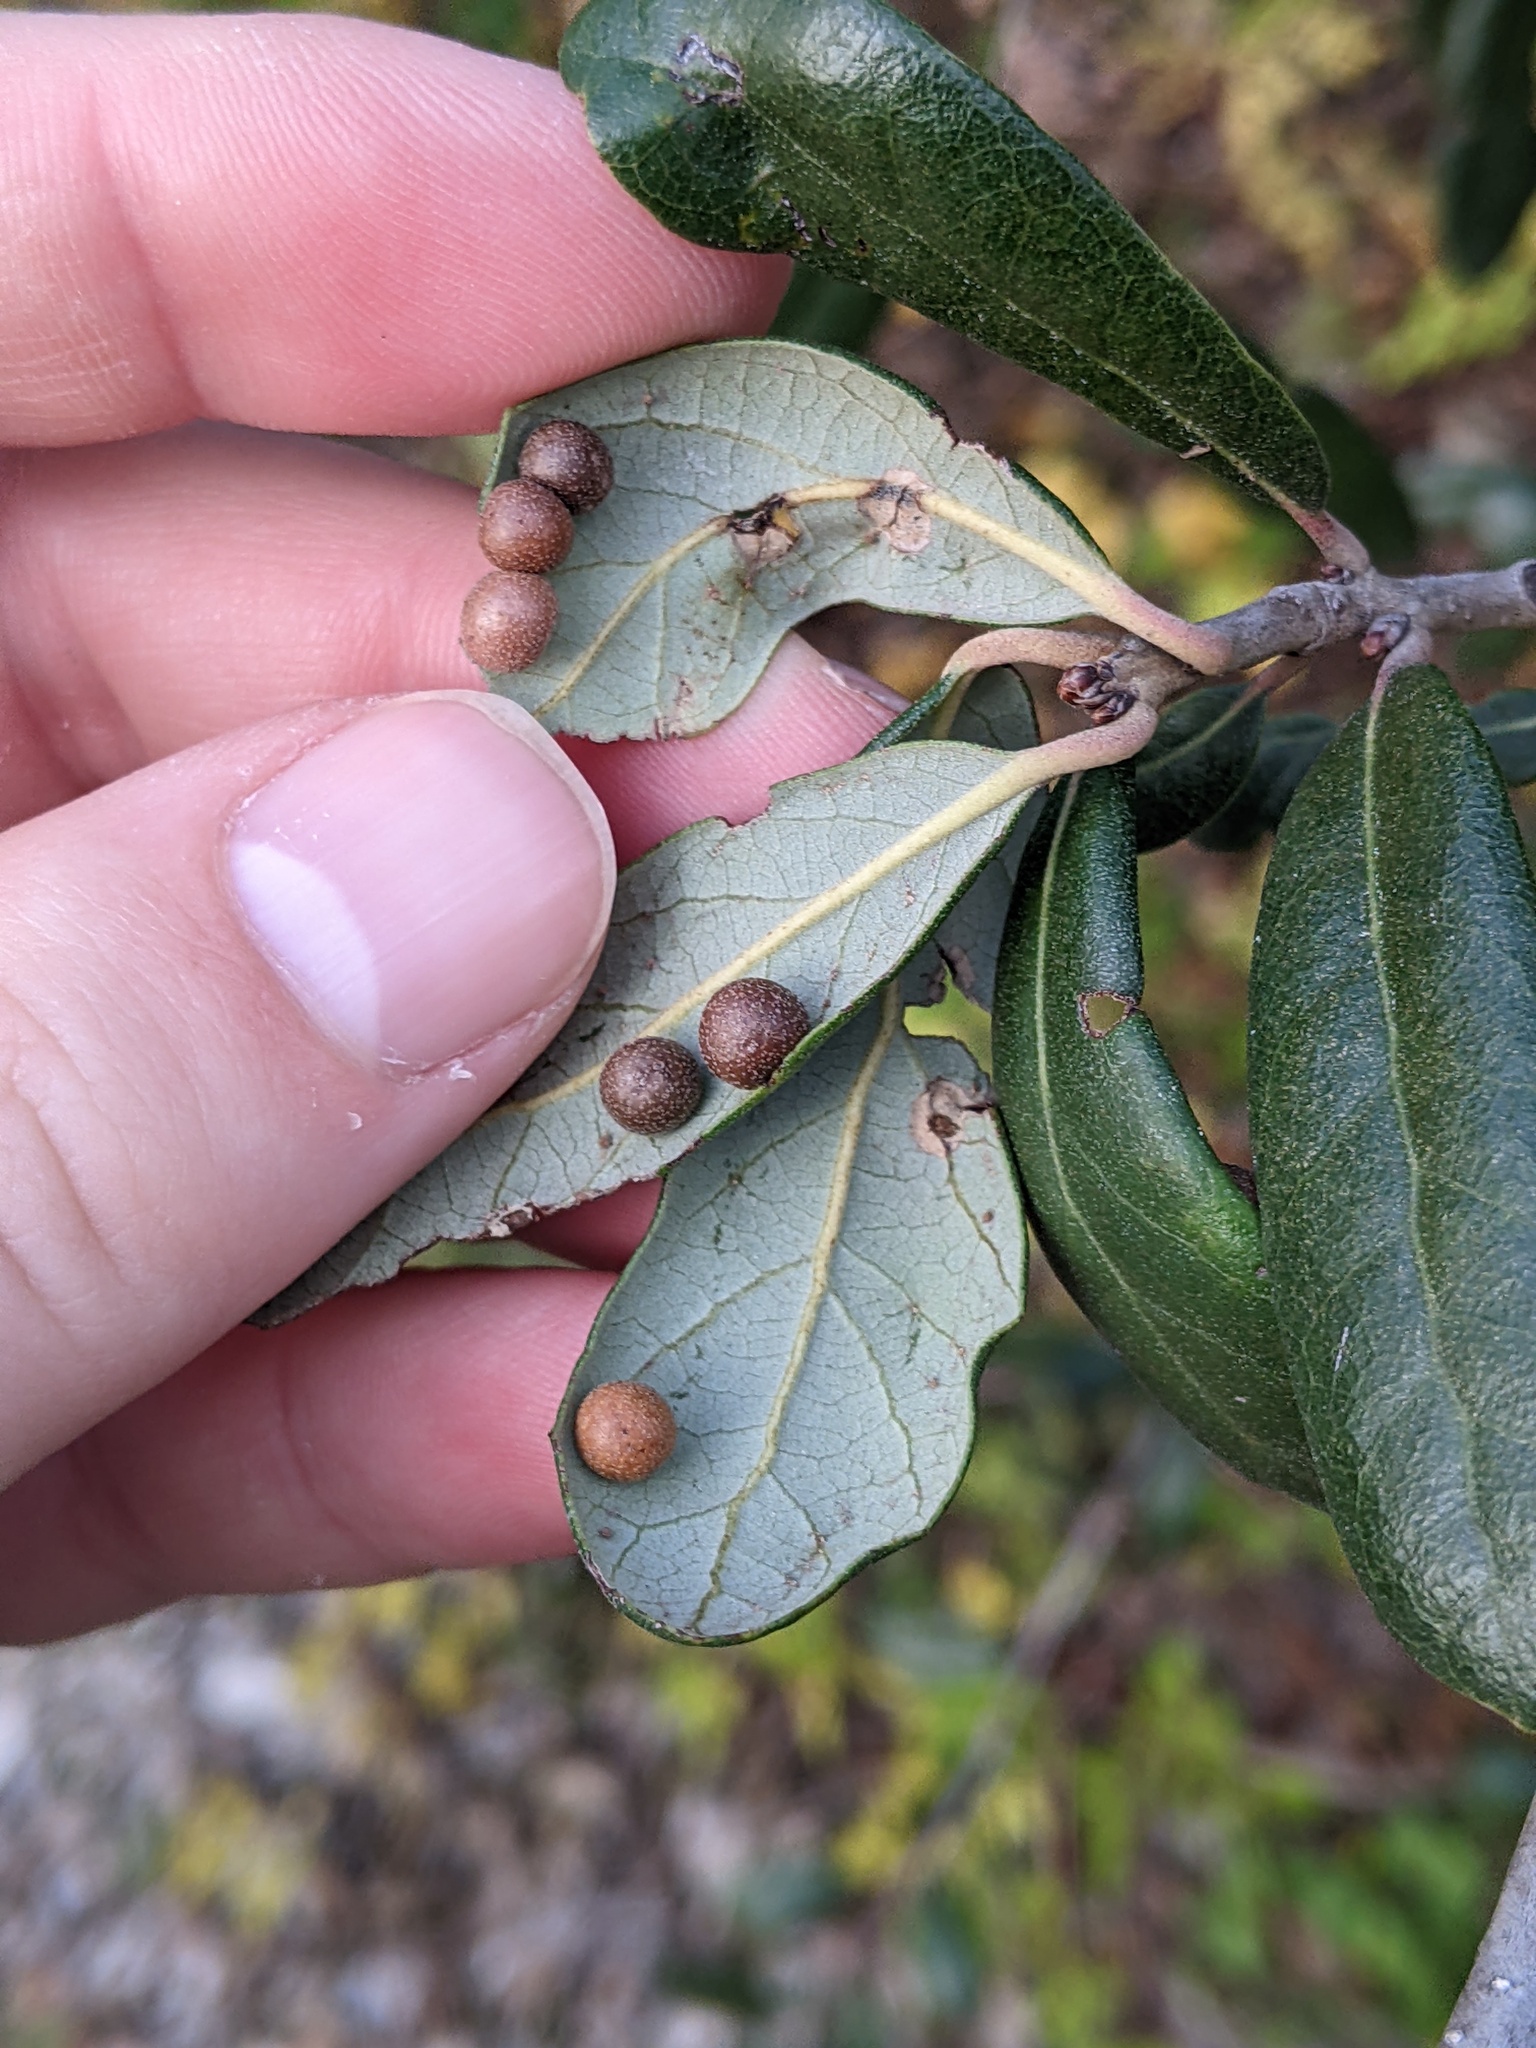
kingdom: Animalia
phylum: Arthropoda
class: Insecta
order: Hymenoptera
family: Cynipidae
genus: Belonocnema
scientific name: Belonocnema kinseyi
